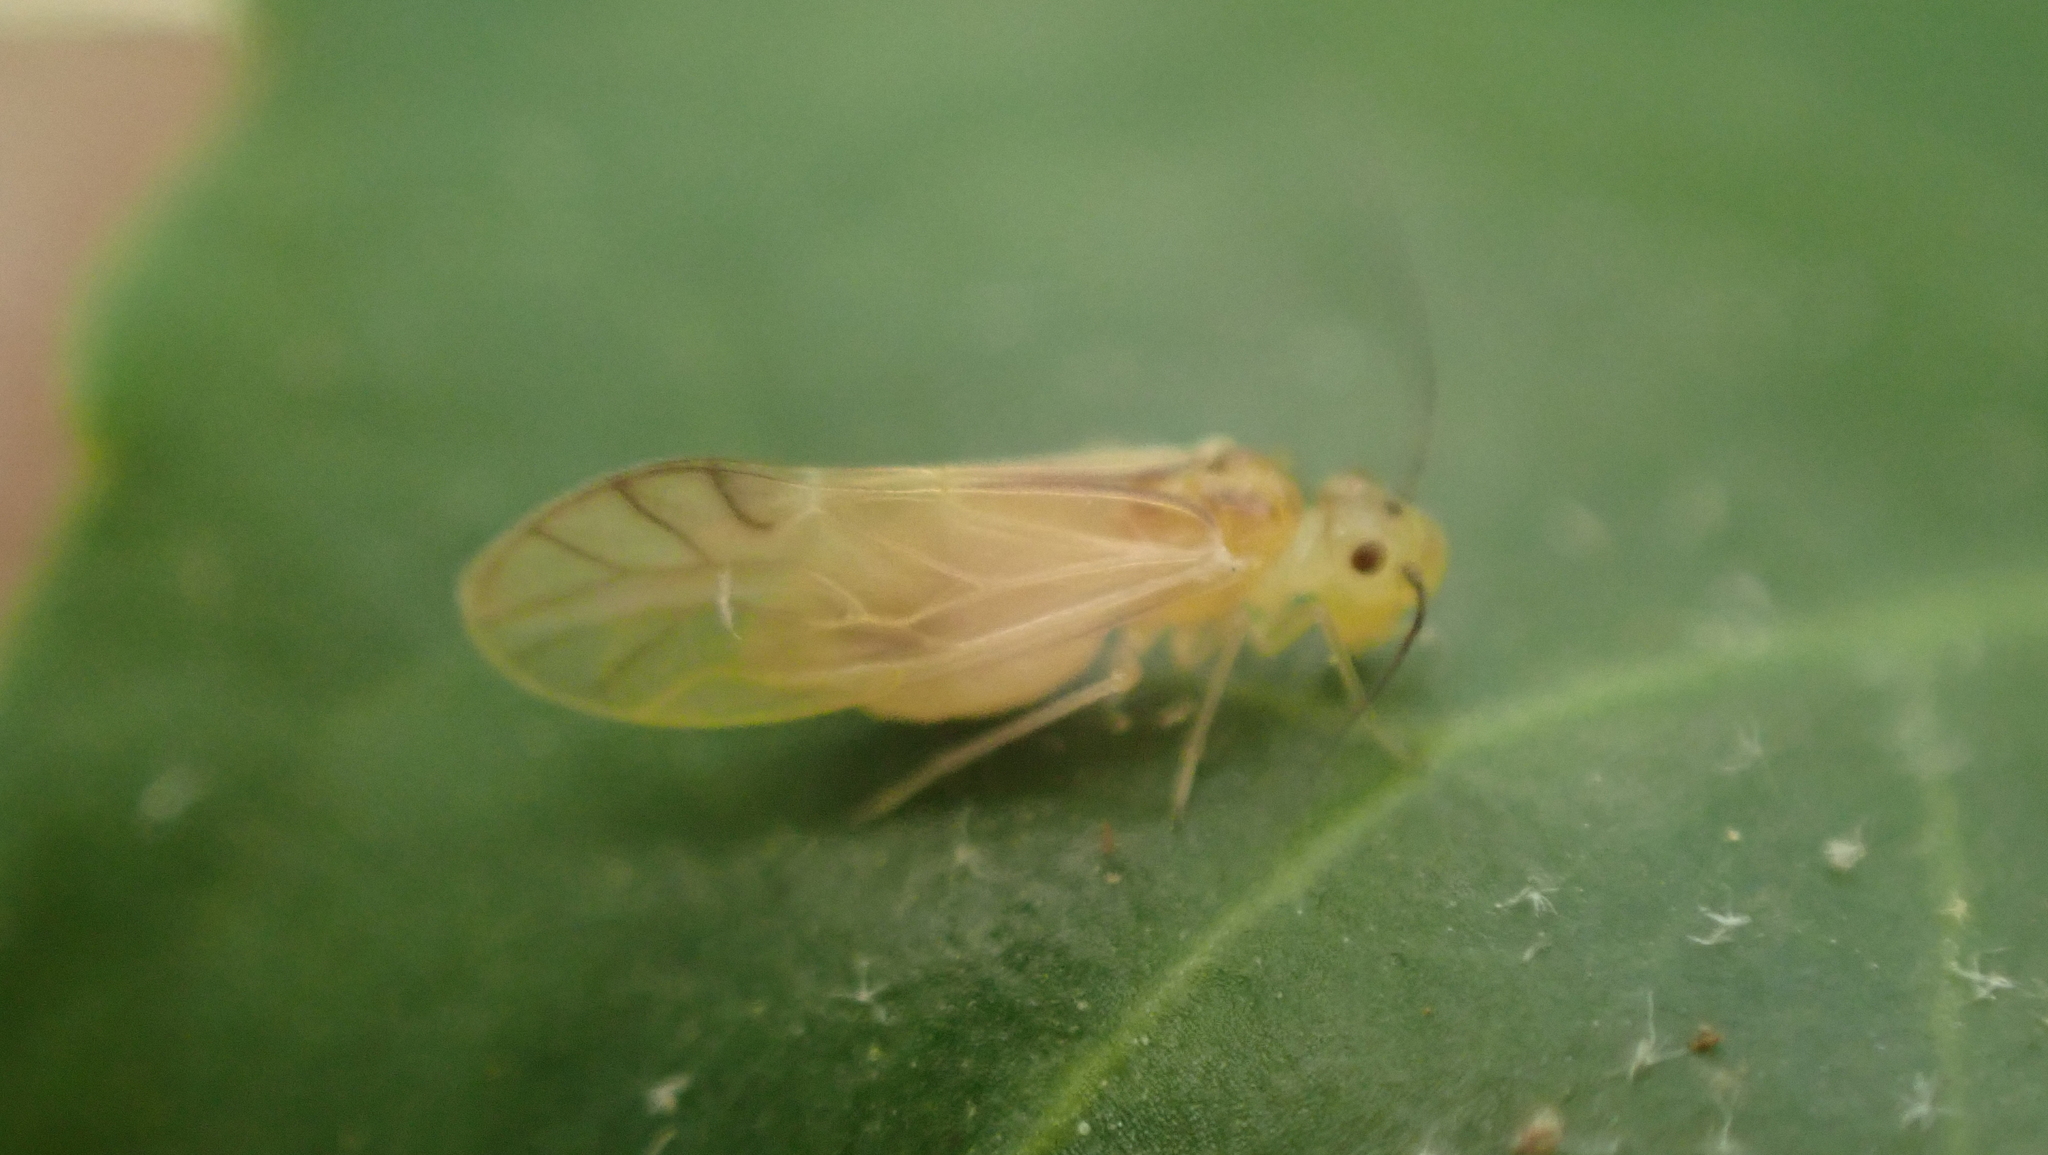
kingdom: Animalia
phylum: Arthropoda
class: Insecta
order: Psocodea
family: Caeciliusidae
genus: Valenzuela
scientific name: Valenzuela flavidus
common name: Yellow barklouse
